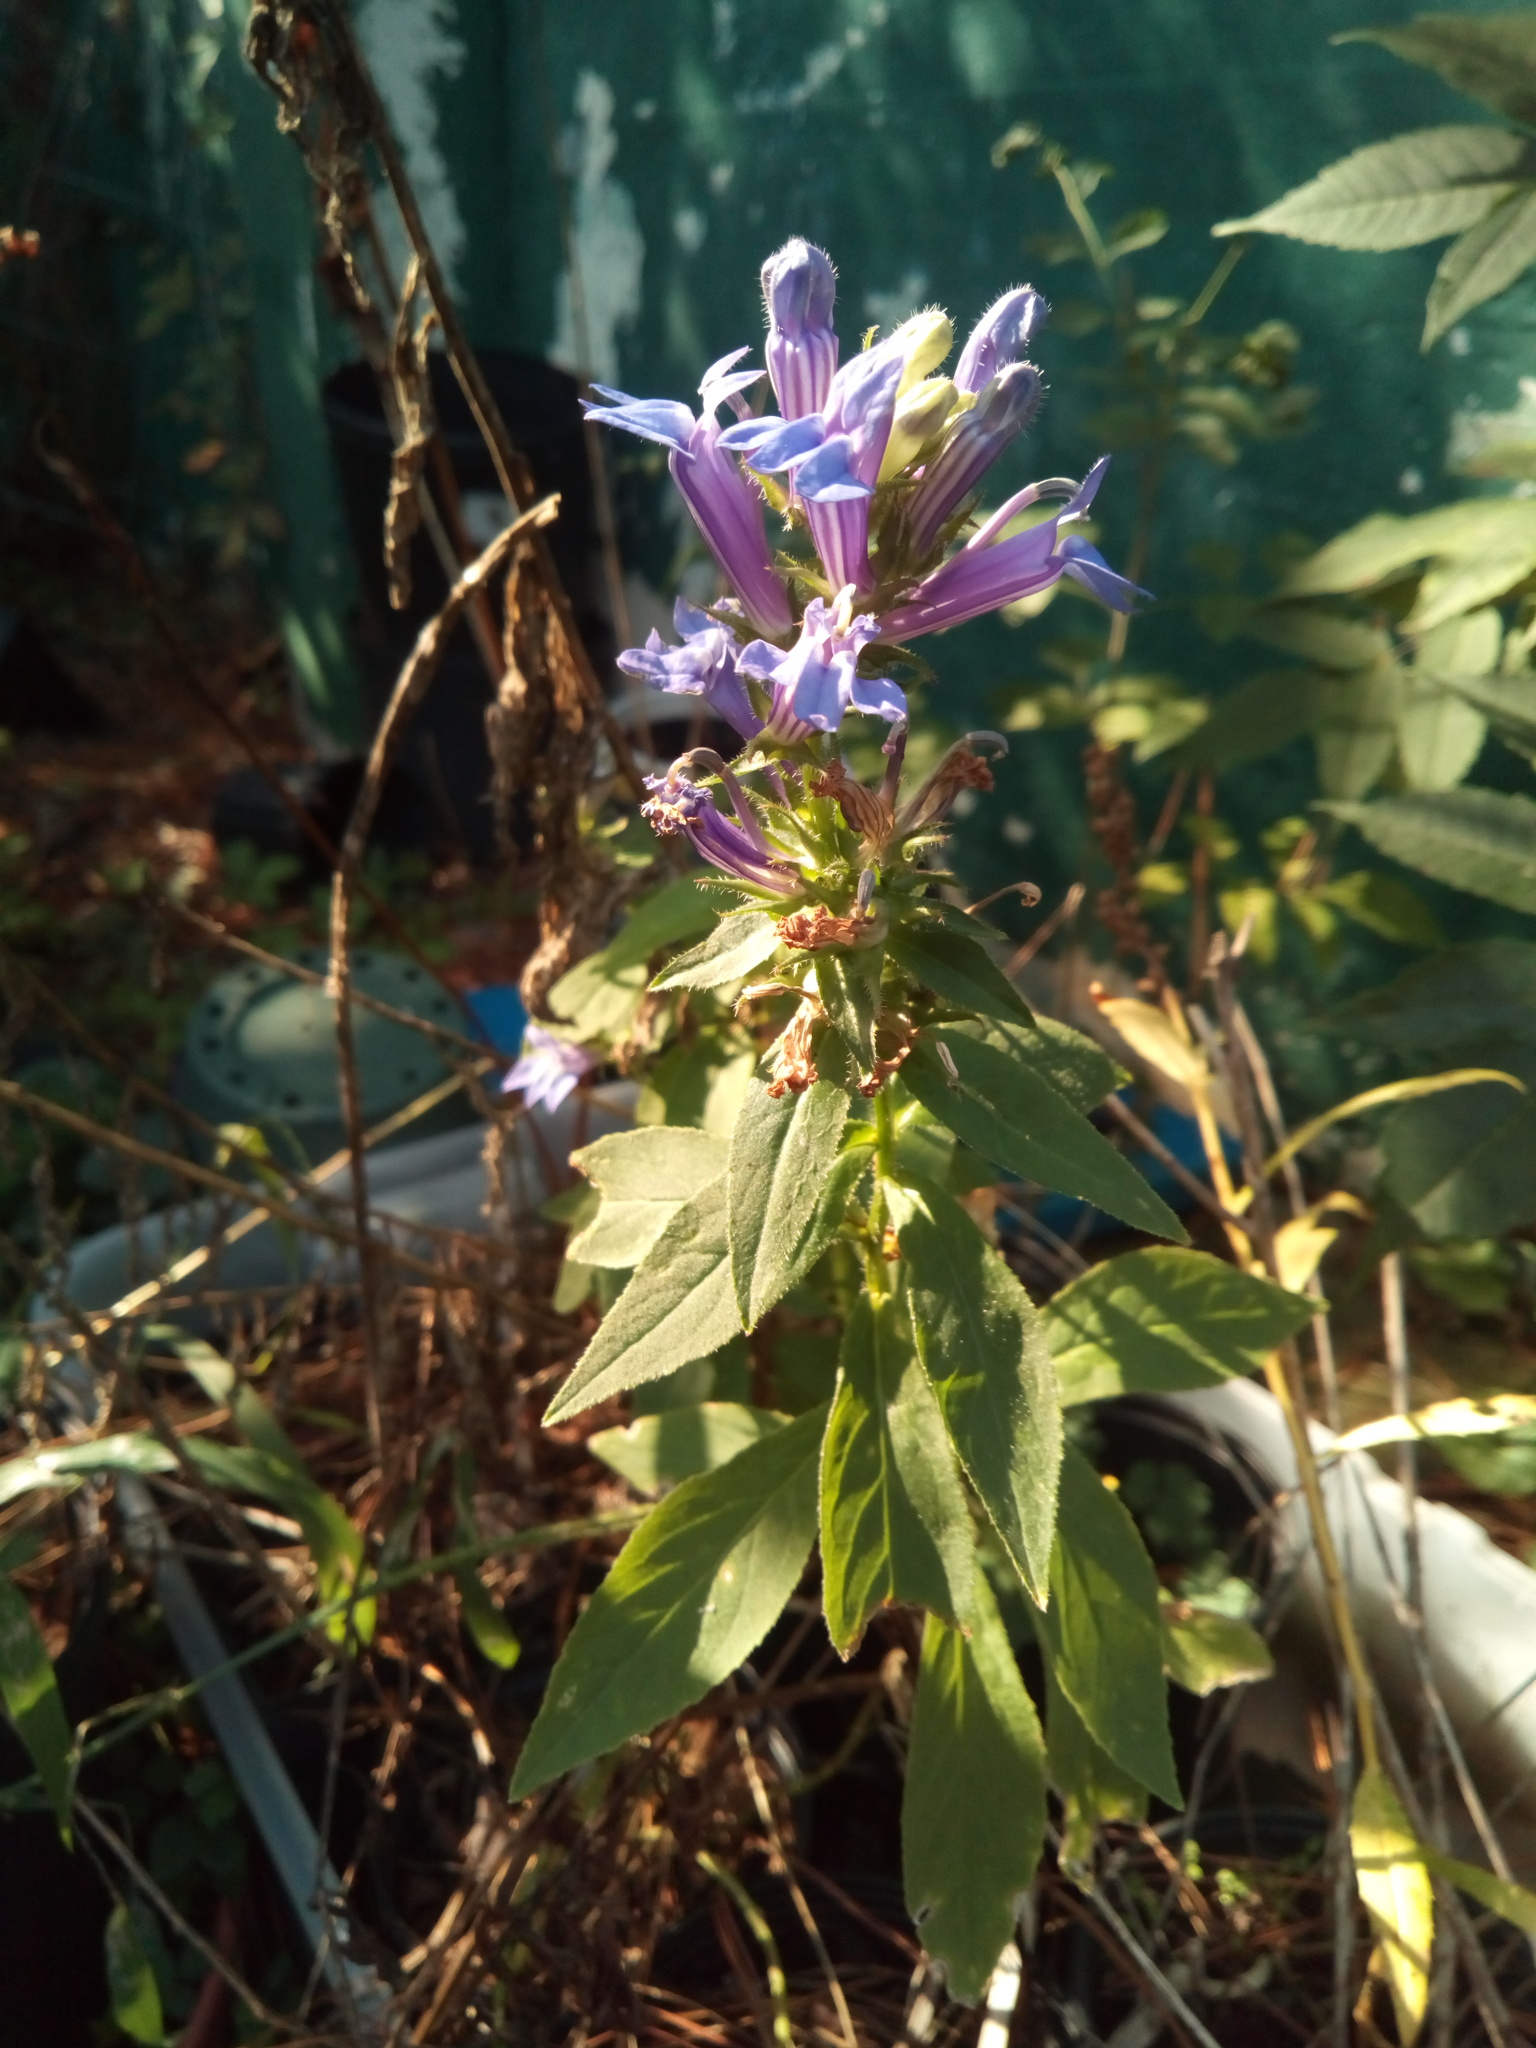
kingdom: Plantae
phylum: Tracheophyta
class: Magnoliopsida
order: Asterales
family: Campanulaceae
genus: Lobelia
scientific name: Lobelia siphilitica
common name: Great lobelia
